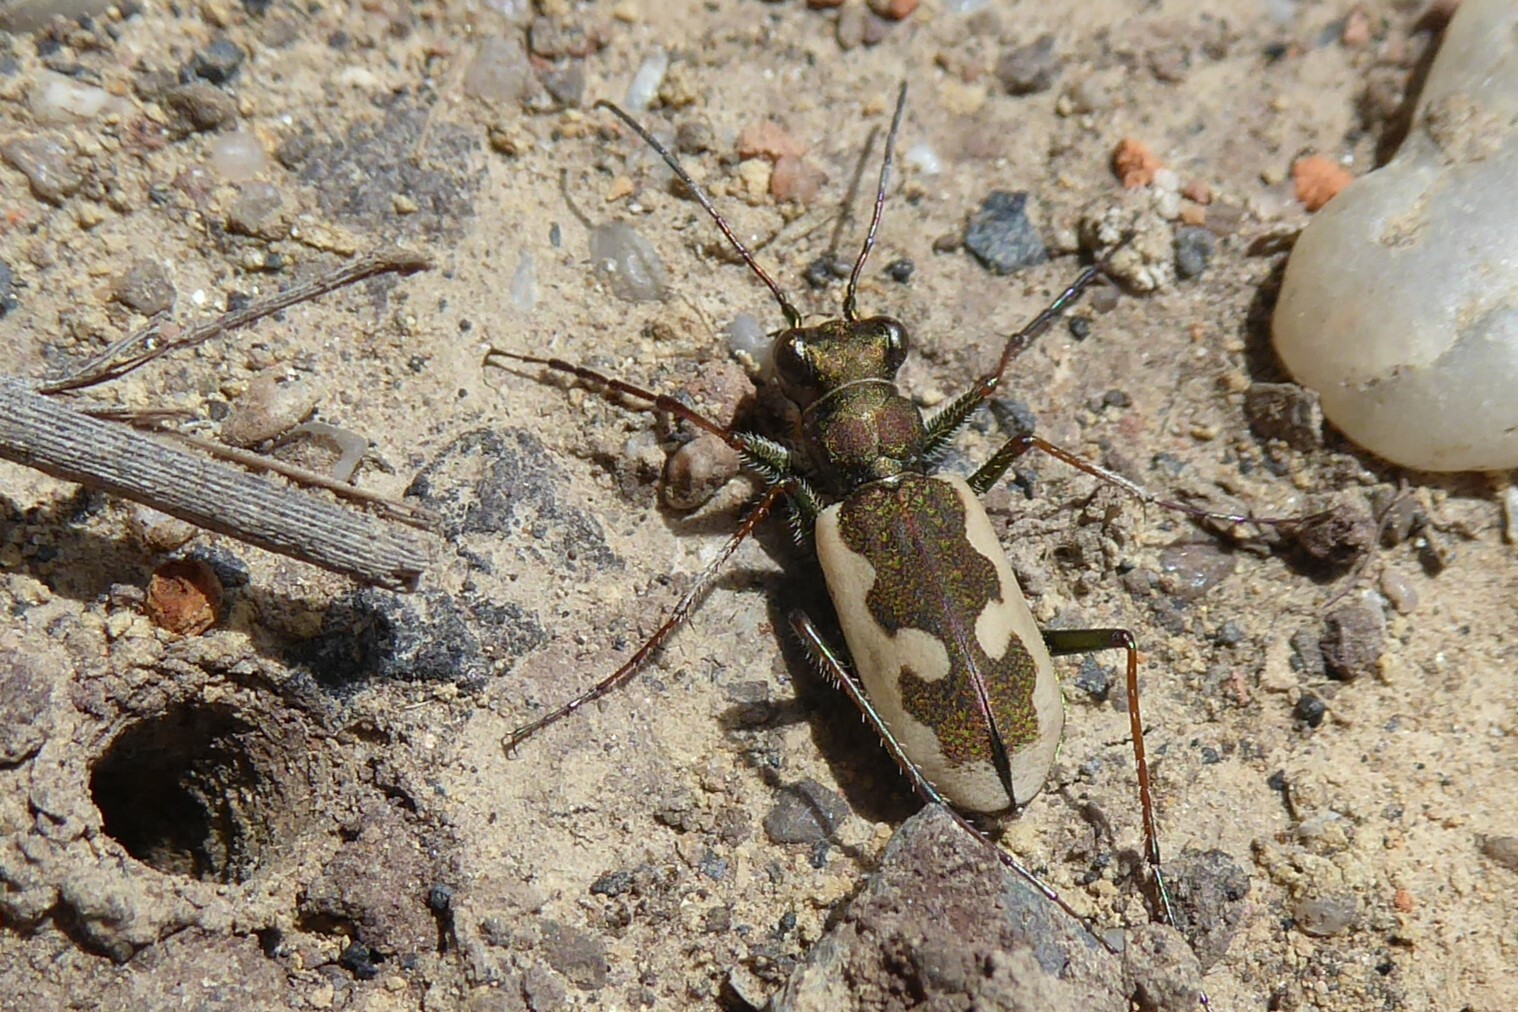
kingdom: Animalia
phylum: Arthropoda
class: Insecta
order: Coleoptera
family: Carabidae
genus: Neocicindela
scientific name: Neocicindela latecincta
